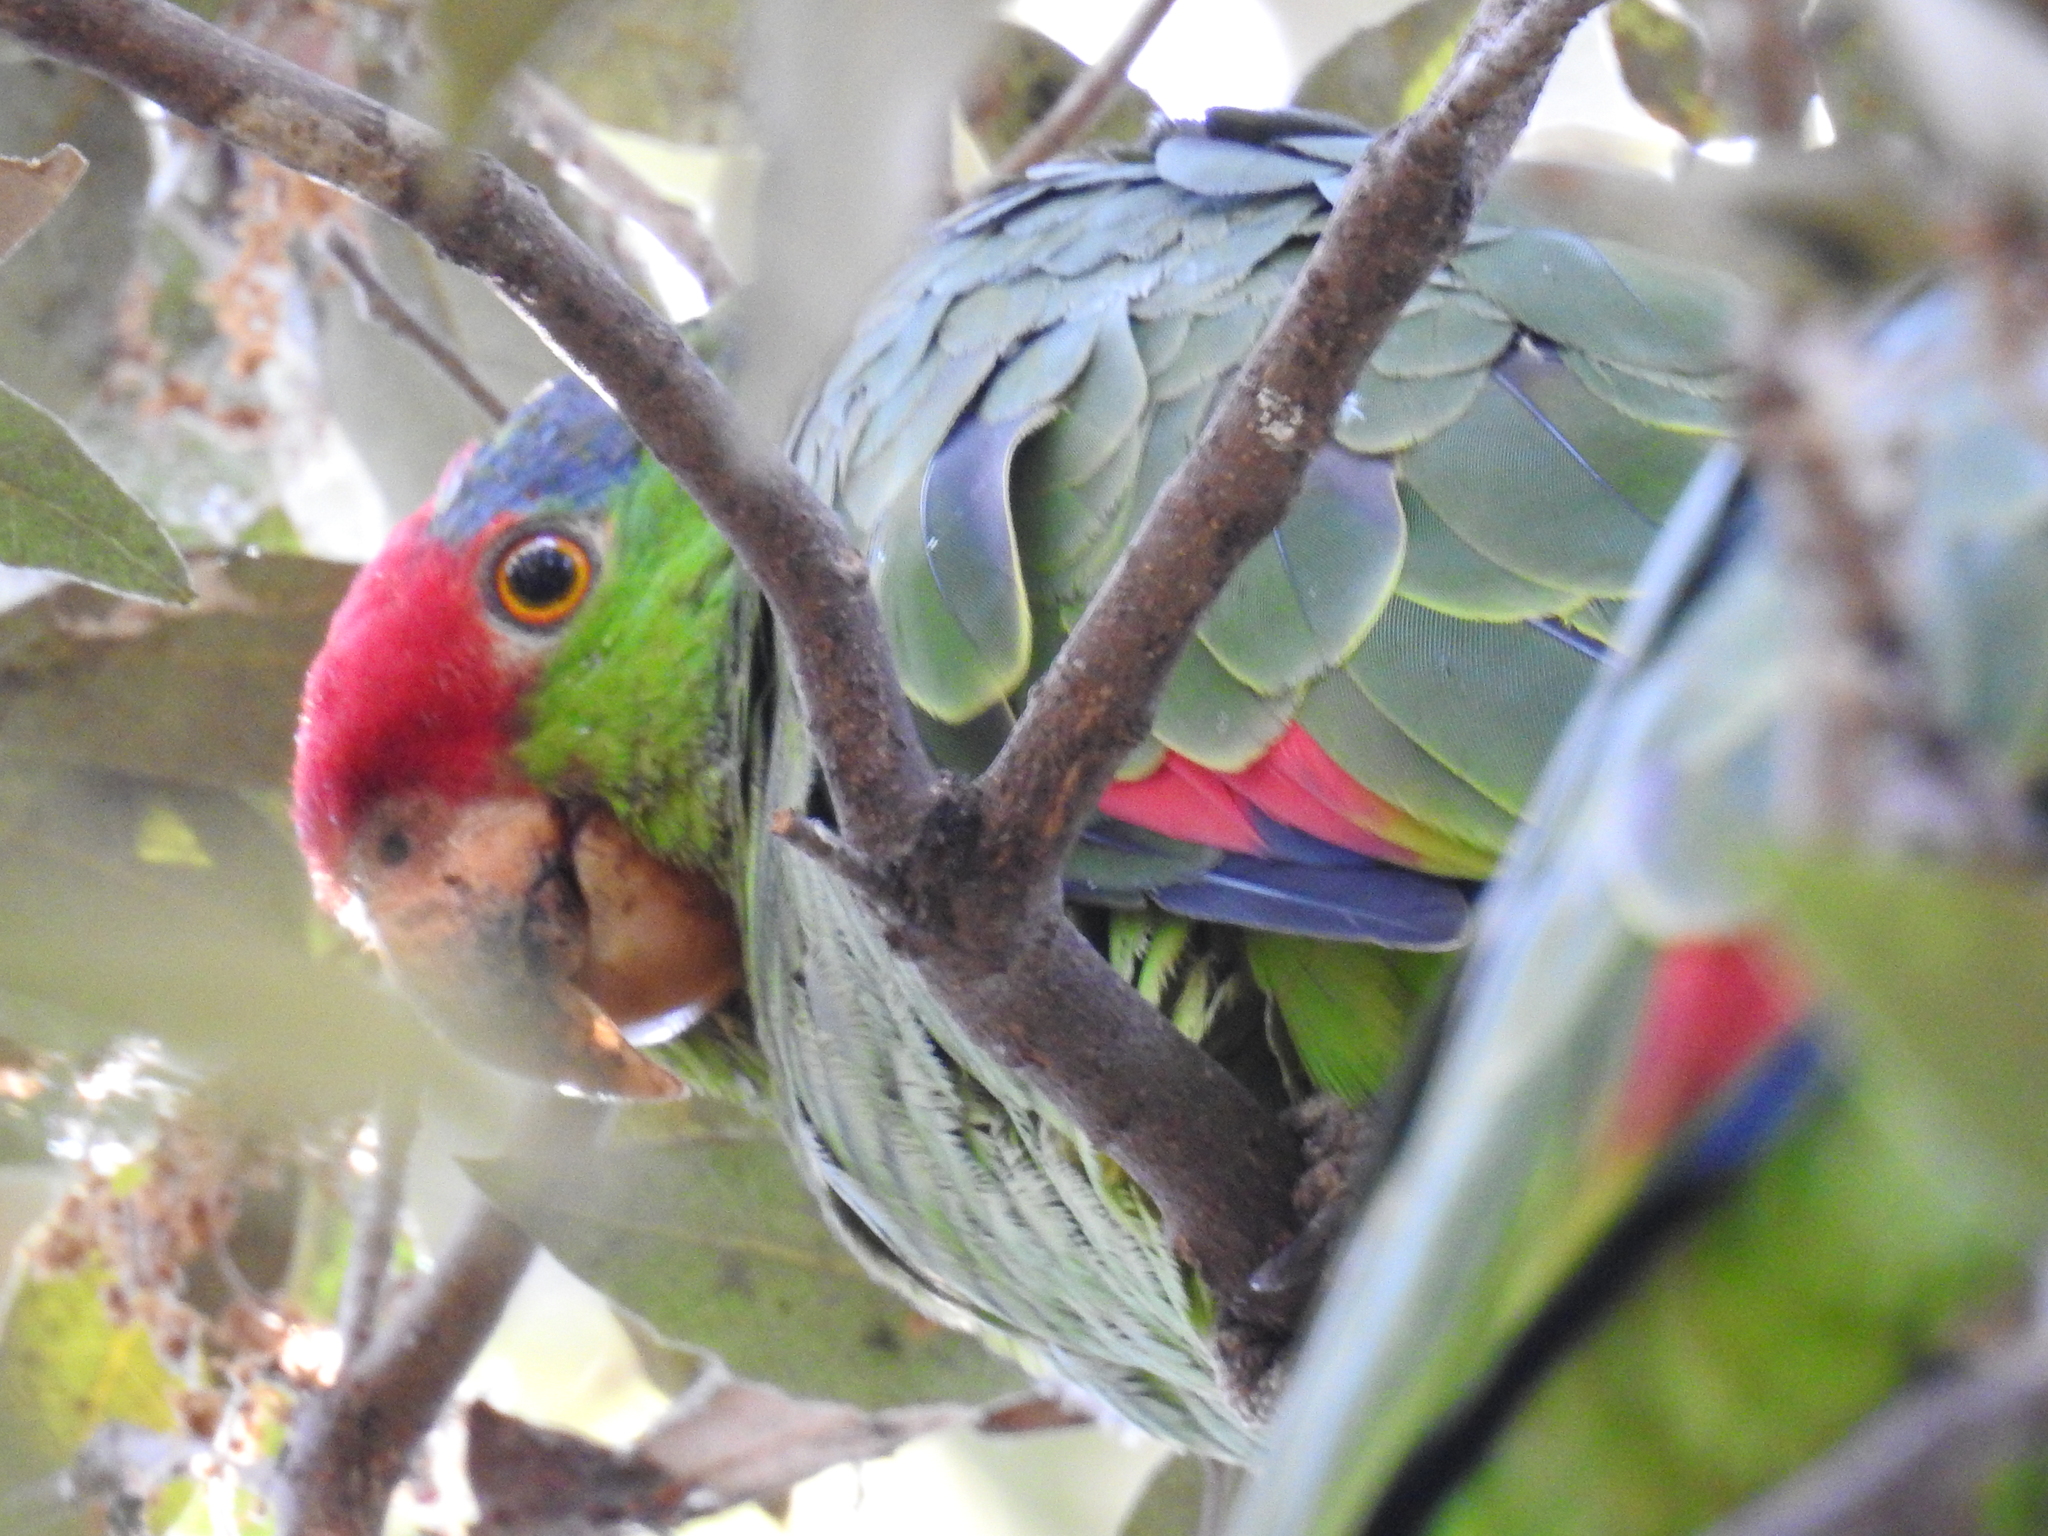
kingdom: Animalia
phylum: Chordata
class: Aves
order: Psittaciformes
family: Psittacidae
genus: Amazona
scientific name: Amazona viridigenalis
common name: Red-crowned amazon
